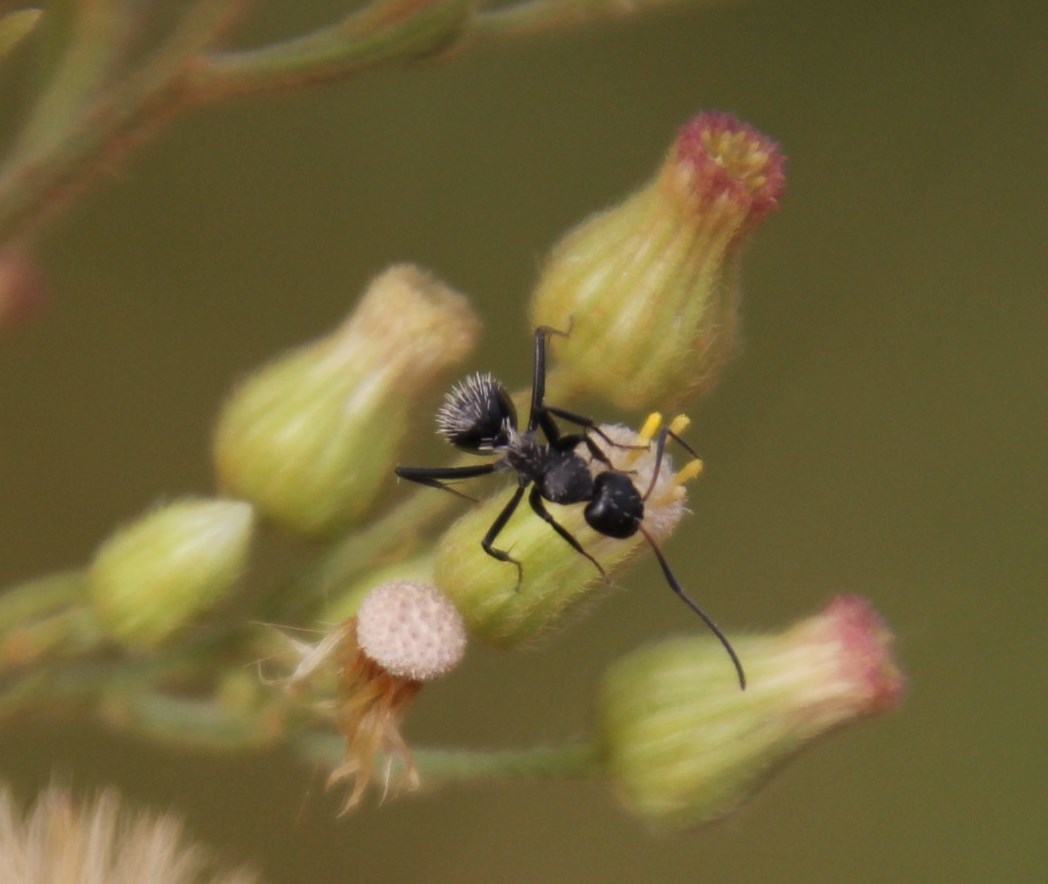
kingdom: Plantae
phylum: Tracheophyta
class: Magnoliopsida
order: Asterales
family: Asteraceae
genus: Erigeron
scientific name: Erigeron bonariensis
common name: Argentine fleabane
